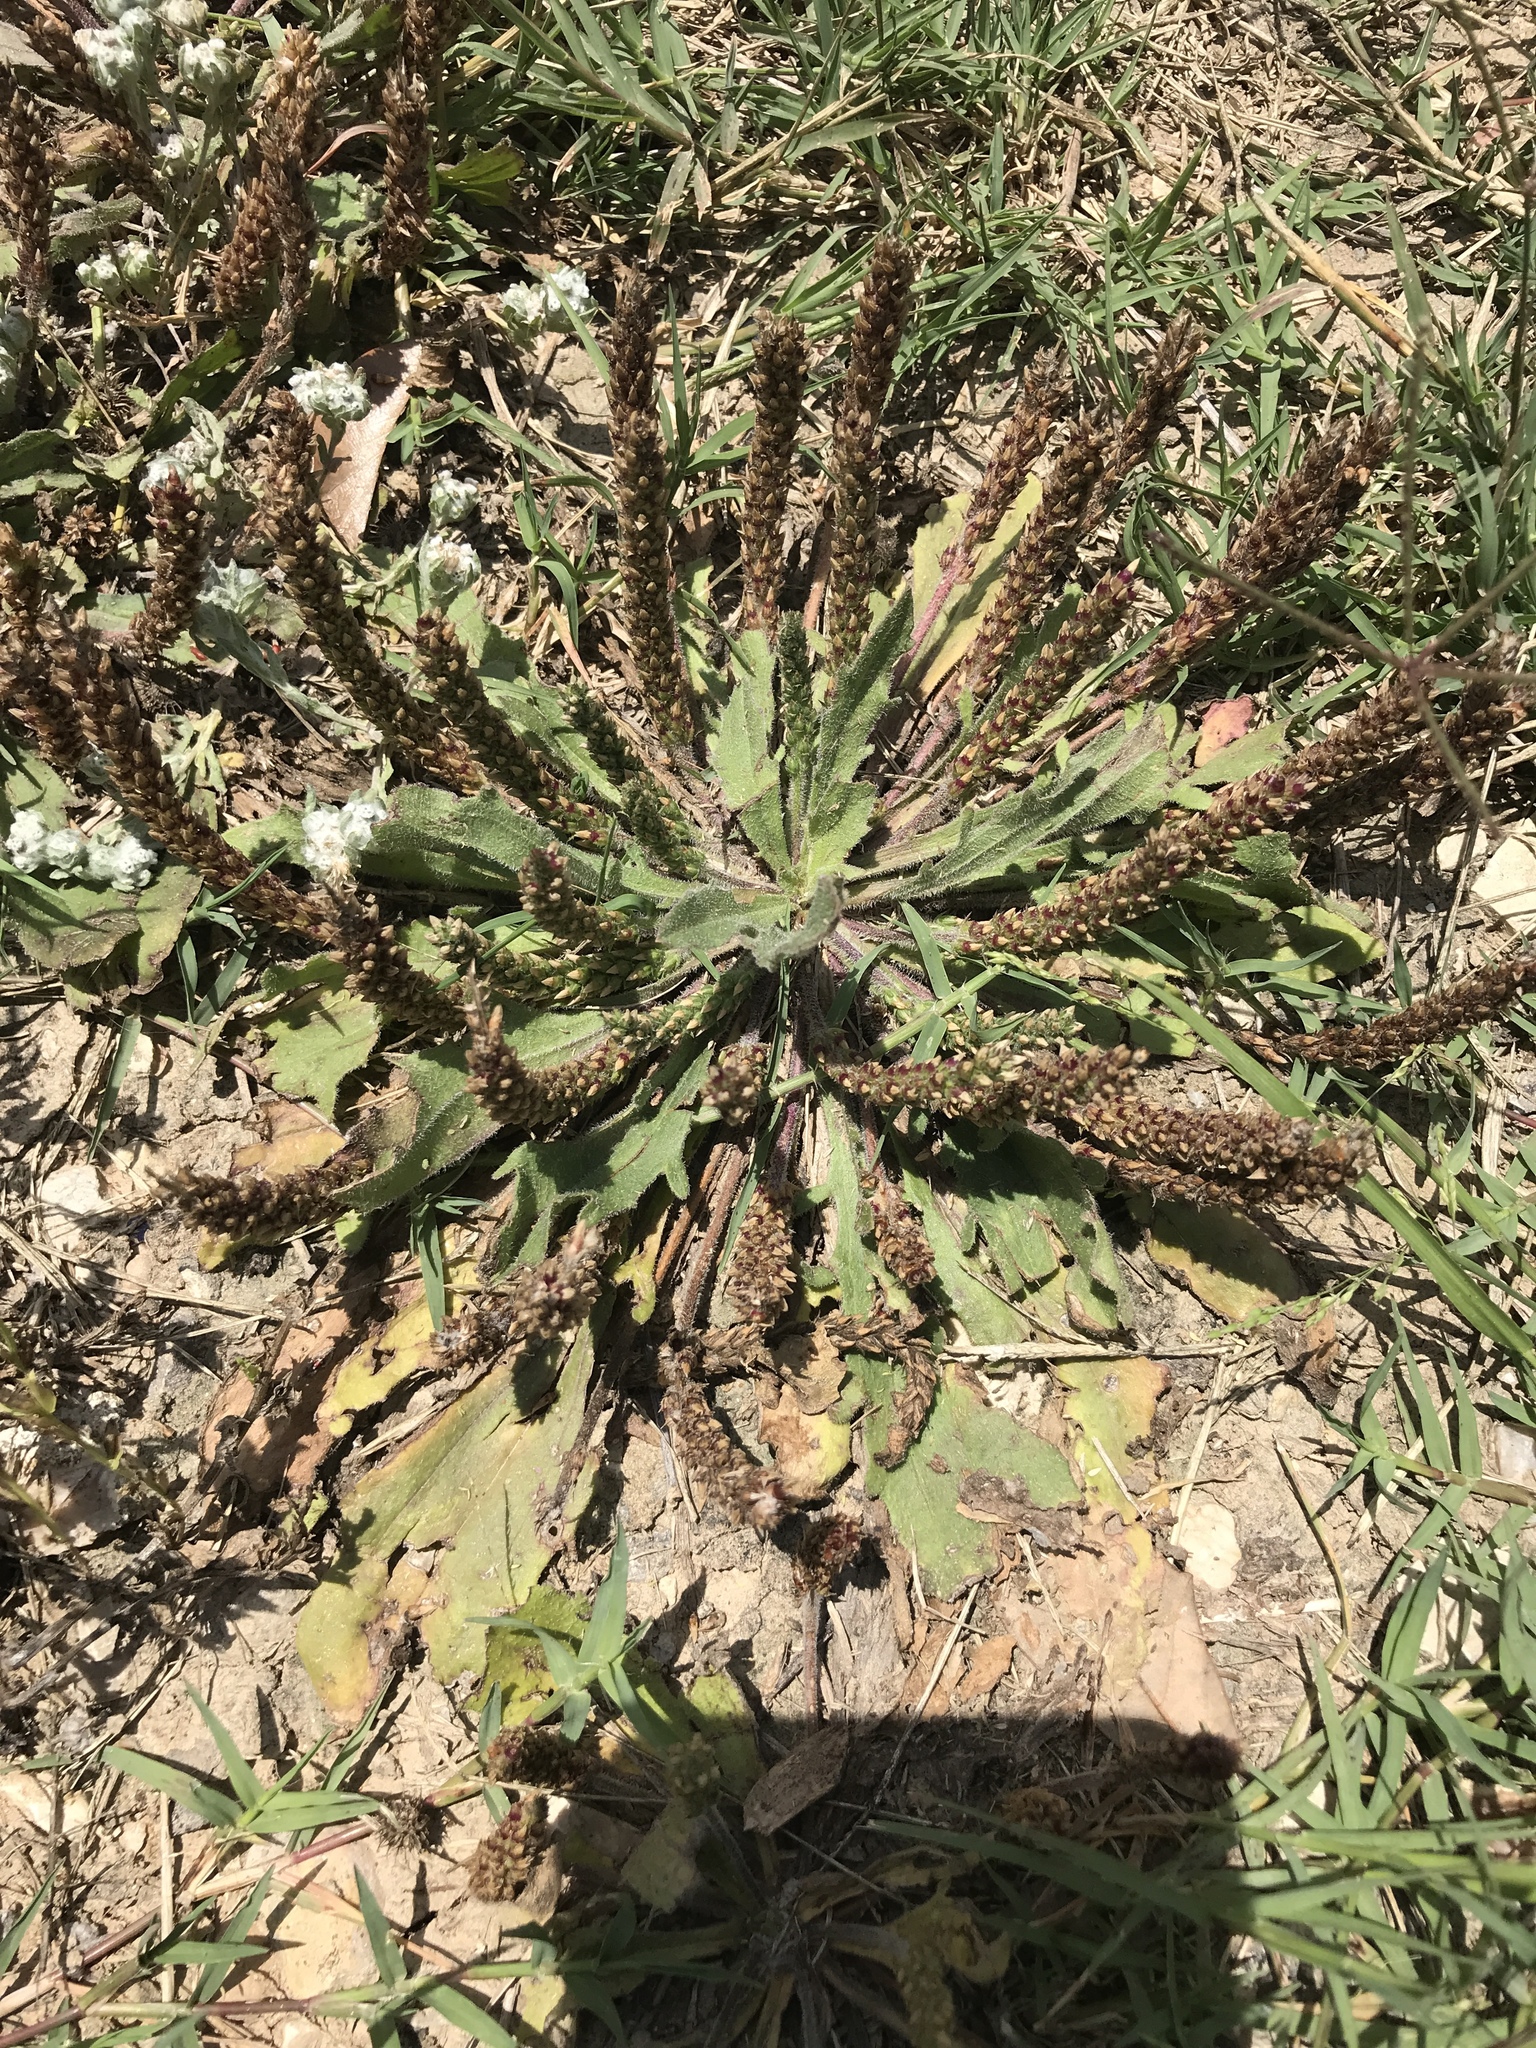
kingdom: Plantae
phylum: Tracheophyta
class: Magnoliopsida
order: Lamiales
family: Plantaginaceae
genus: Plantago
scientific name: Plantago rhodosperma
